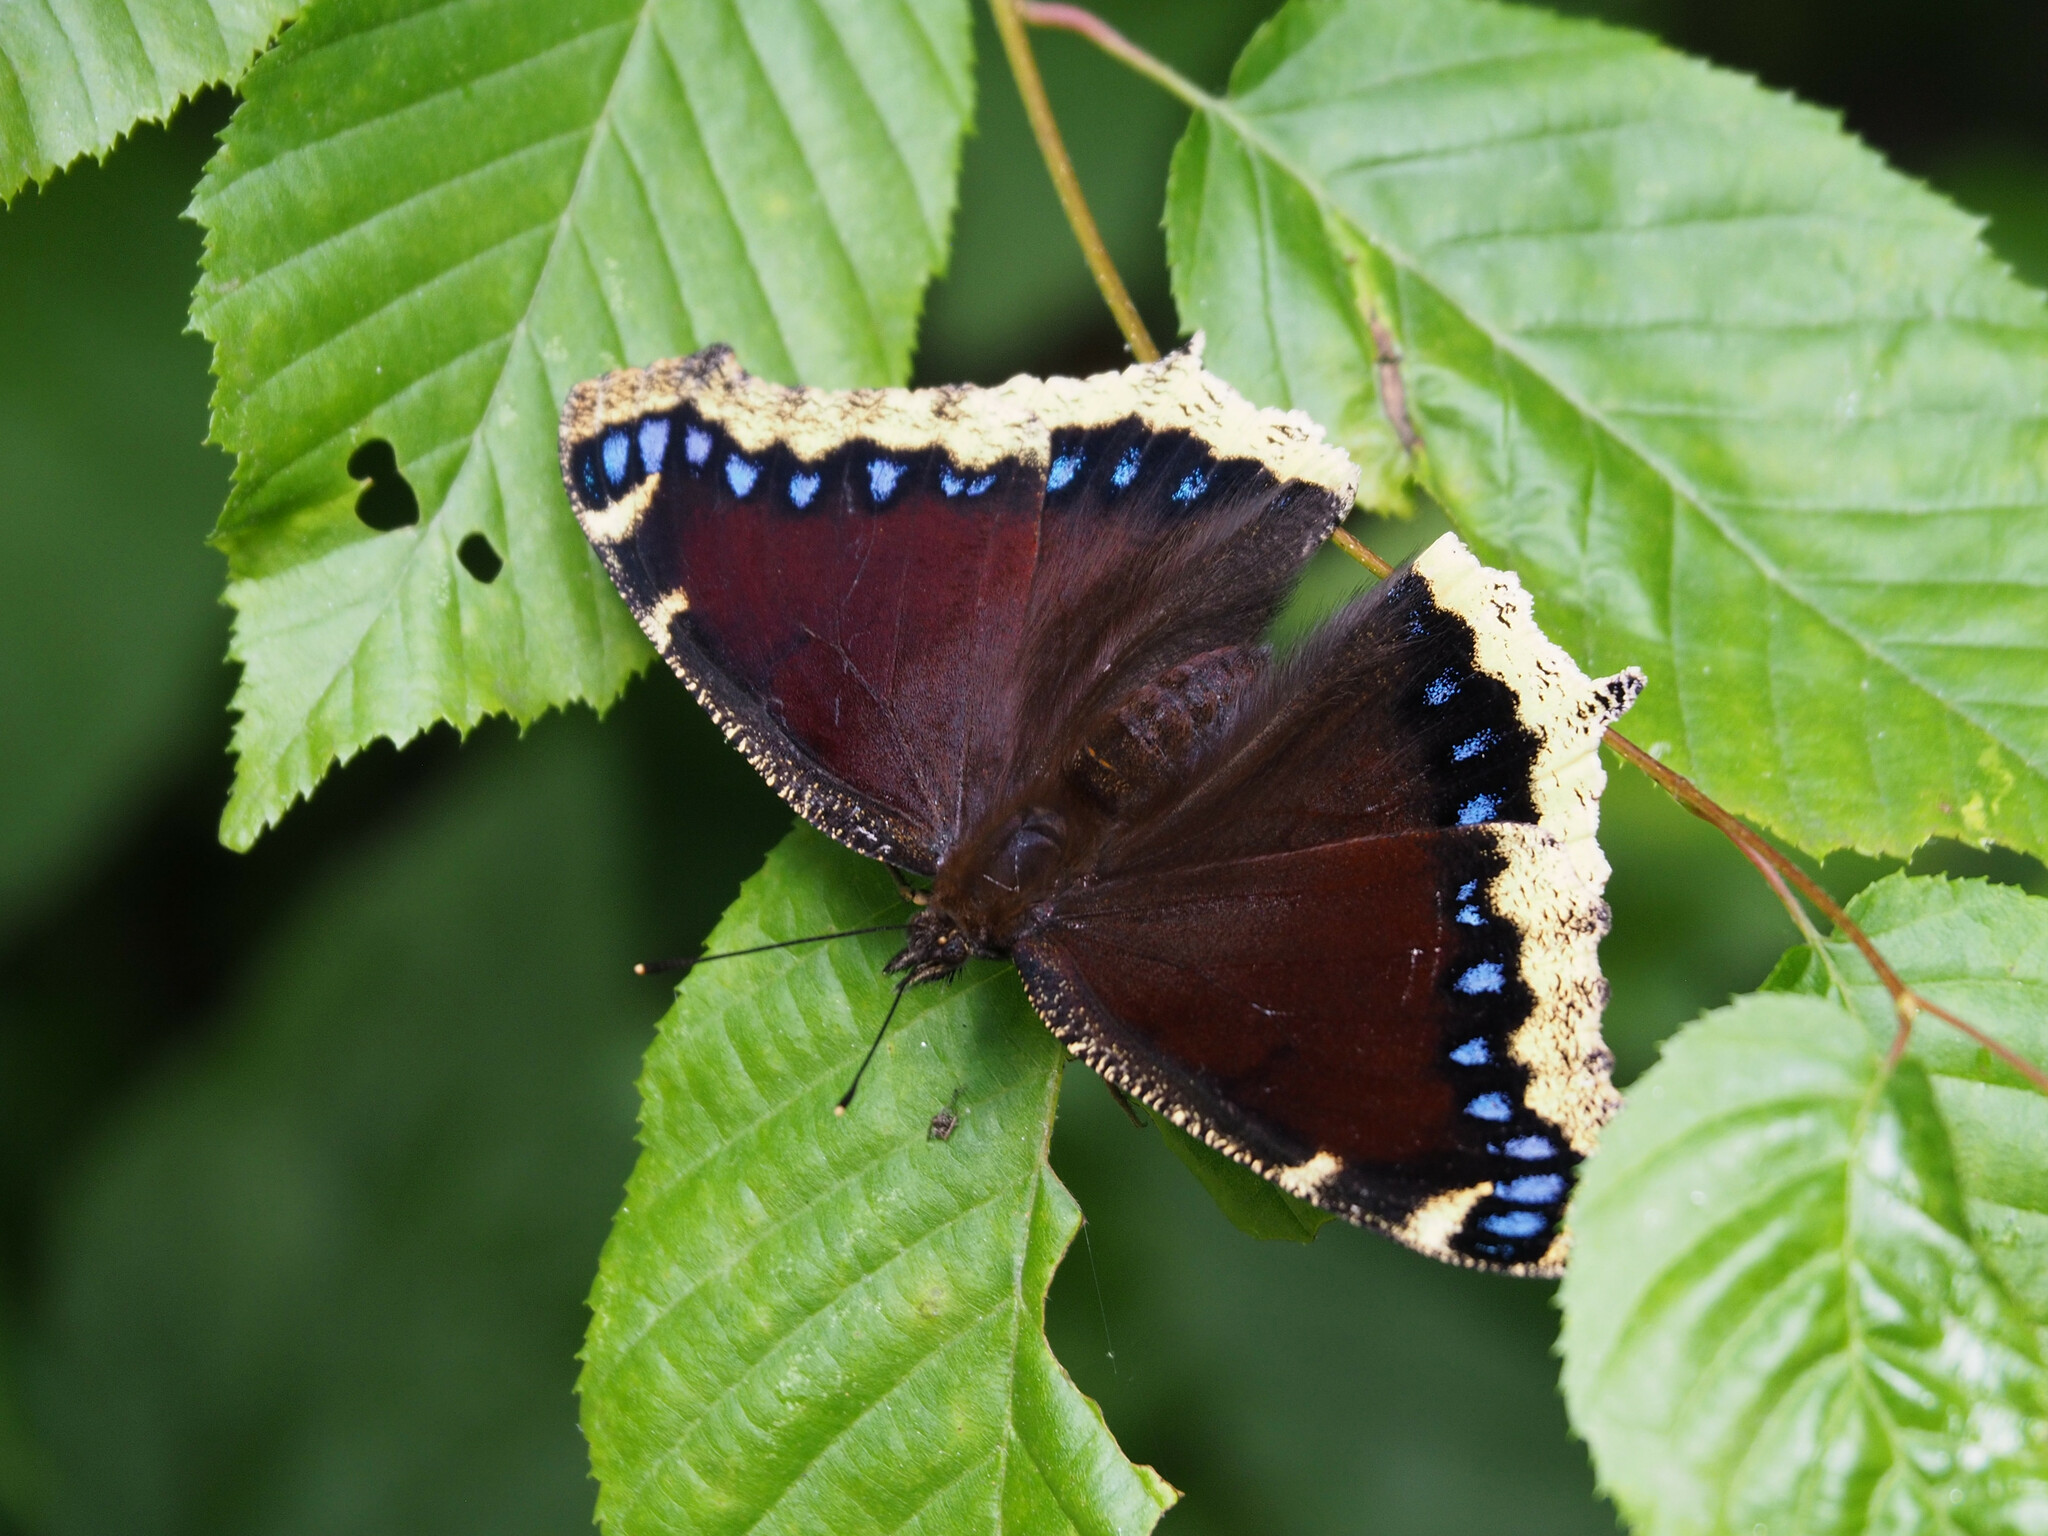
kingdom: Animalia
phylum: Arthropoda
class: Insecta
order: Lepidoptera
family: Nymphalidae
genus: Nymphalis
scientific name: Nymphalis antiopa
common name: Camberwell beauty
